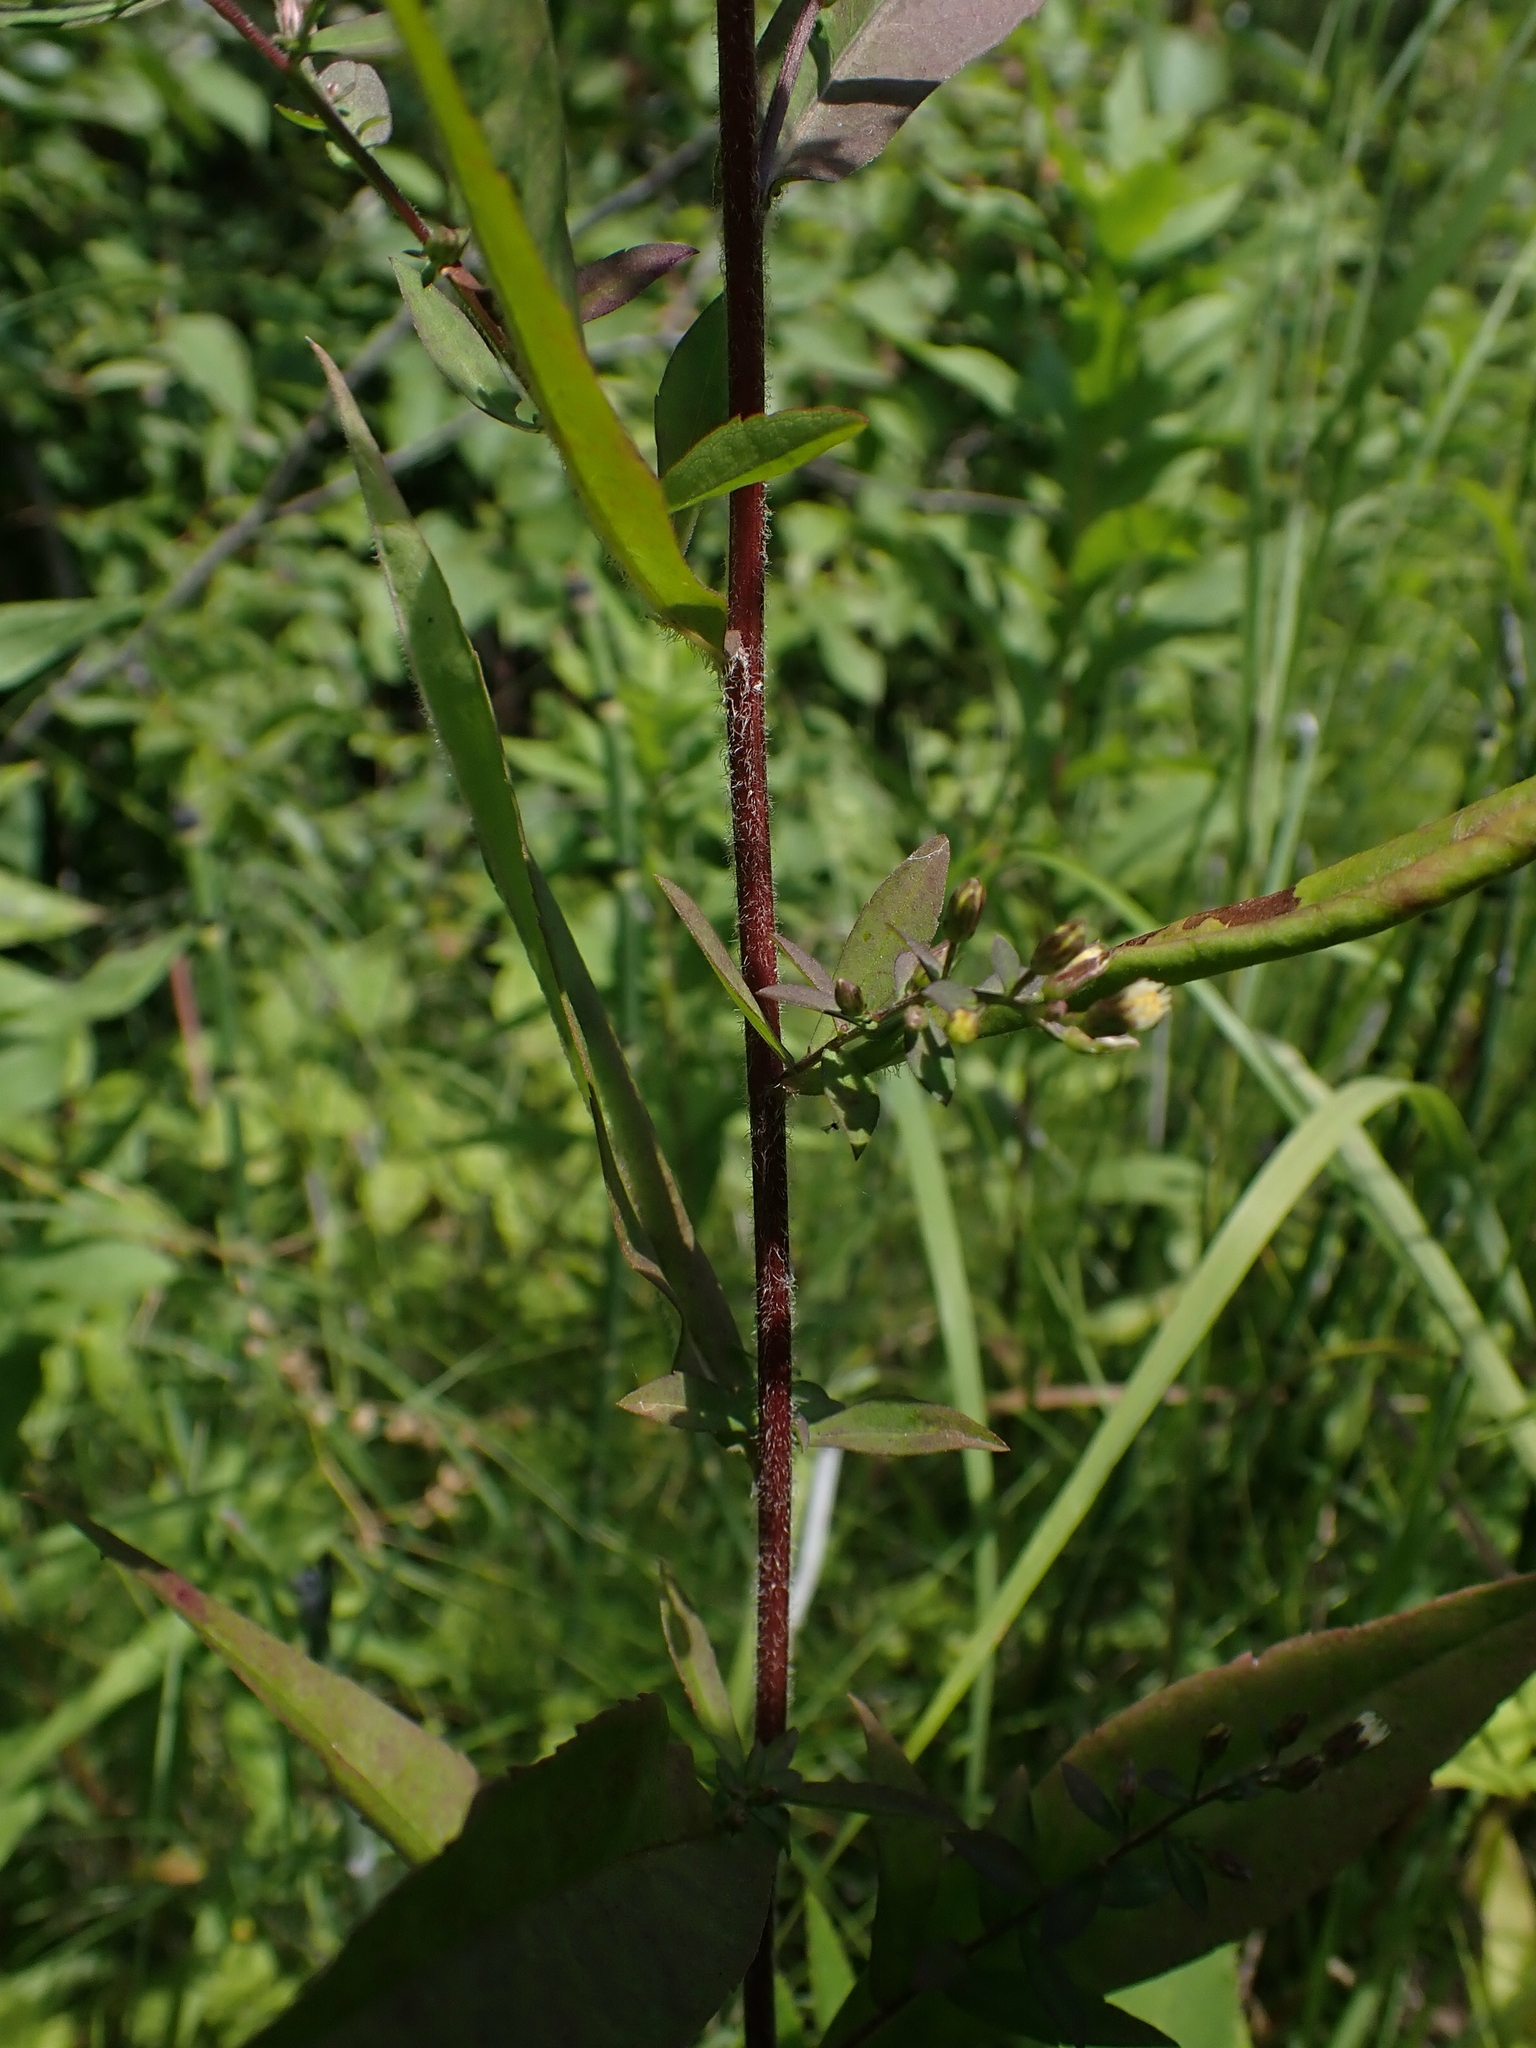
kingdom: Plantae
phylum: Tracheophyta
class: Magnoliopsida
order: Asterales
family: Asteraceae
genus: Symphyotrichum
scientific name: Symphyotrichum lateriflorum
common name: Calico aster
